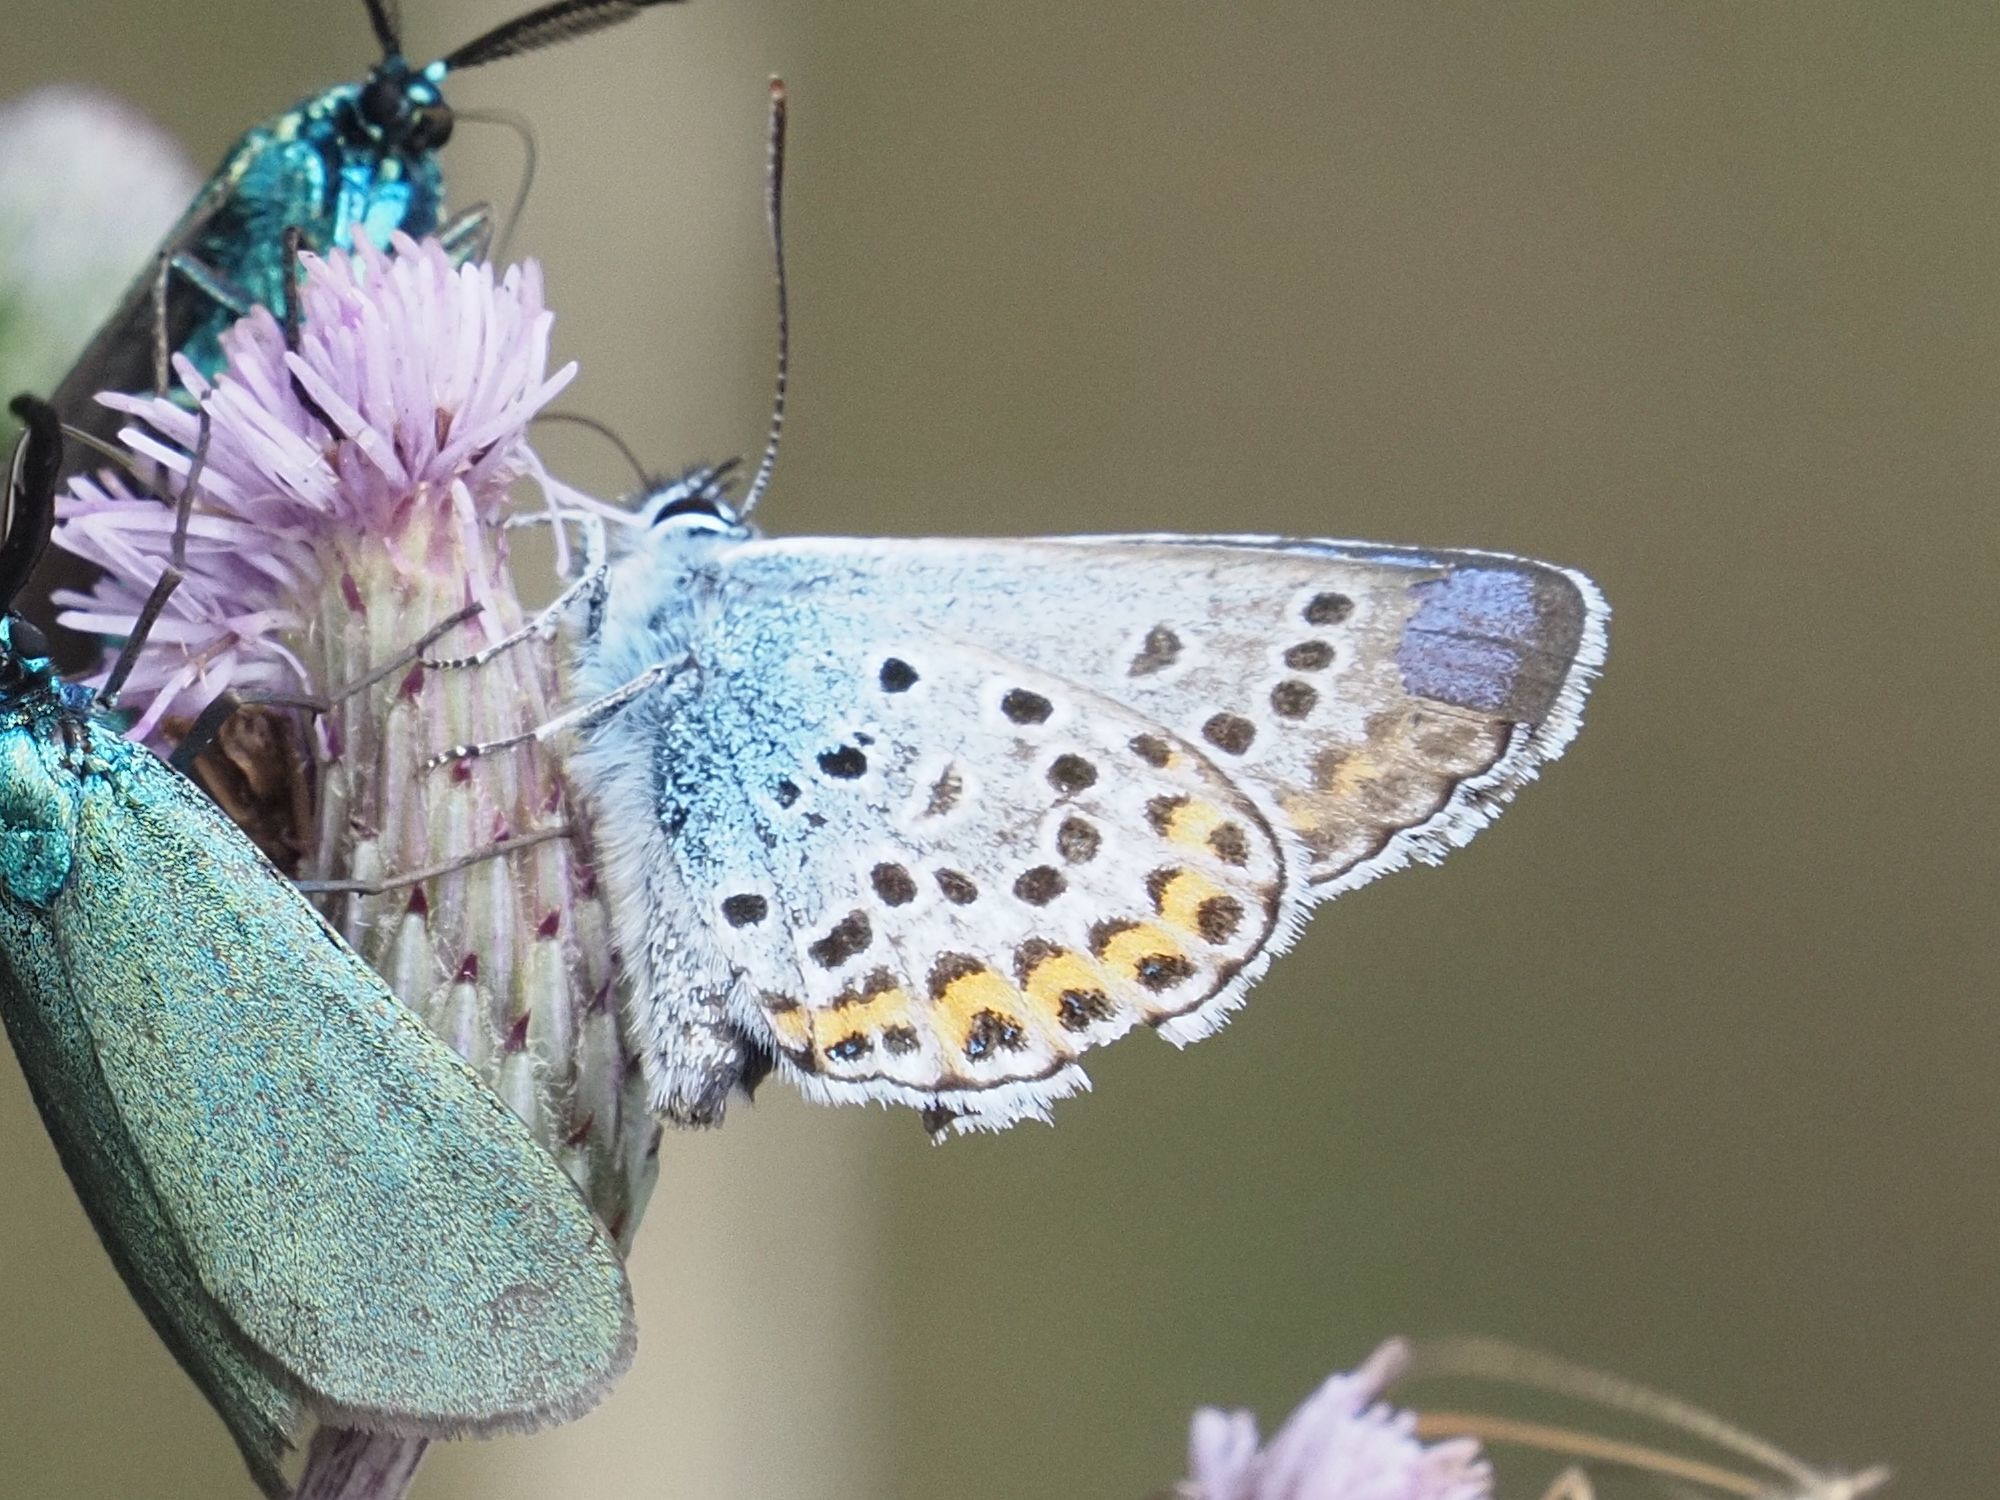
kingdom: Animalia
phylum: Arthropoda
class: Insecta
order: Lepidoptera
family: Lycaenidae
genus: Plebejus
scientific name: Plebejus argus
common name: Silver-studded blue
